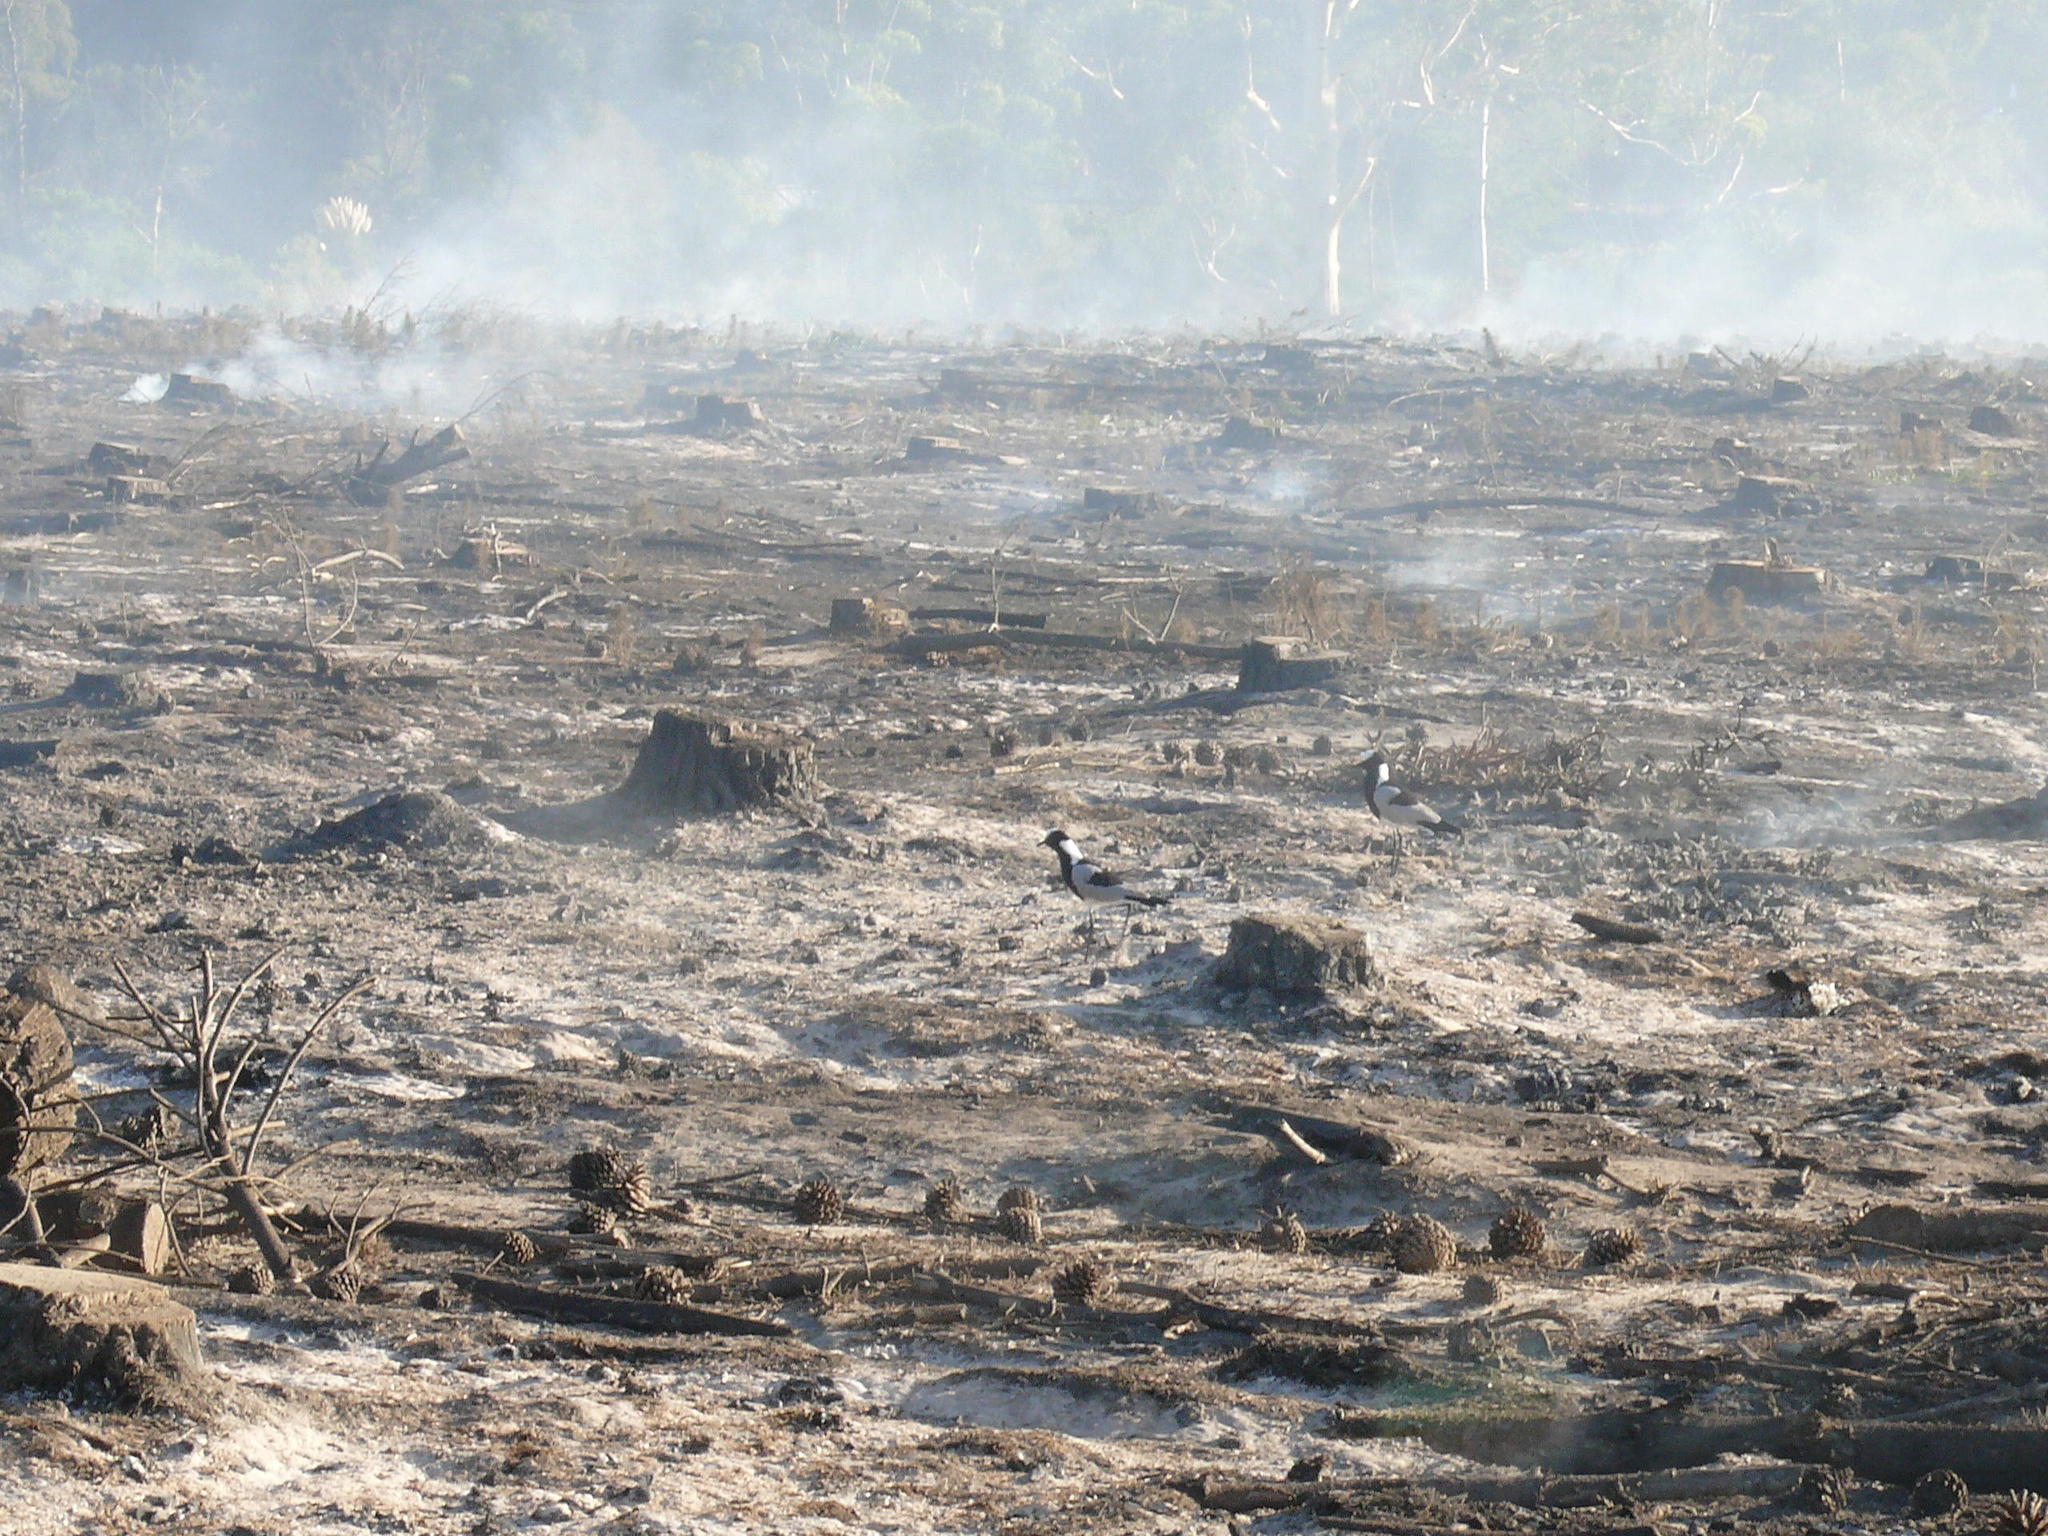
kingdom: Animalia
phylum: Chordata
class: Aves
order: Charadriiformes
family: Charadriidae
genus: Vanellus
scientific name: Vanellus armatus
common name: Blacksmith lapwing
